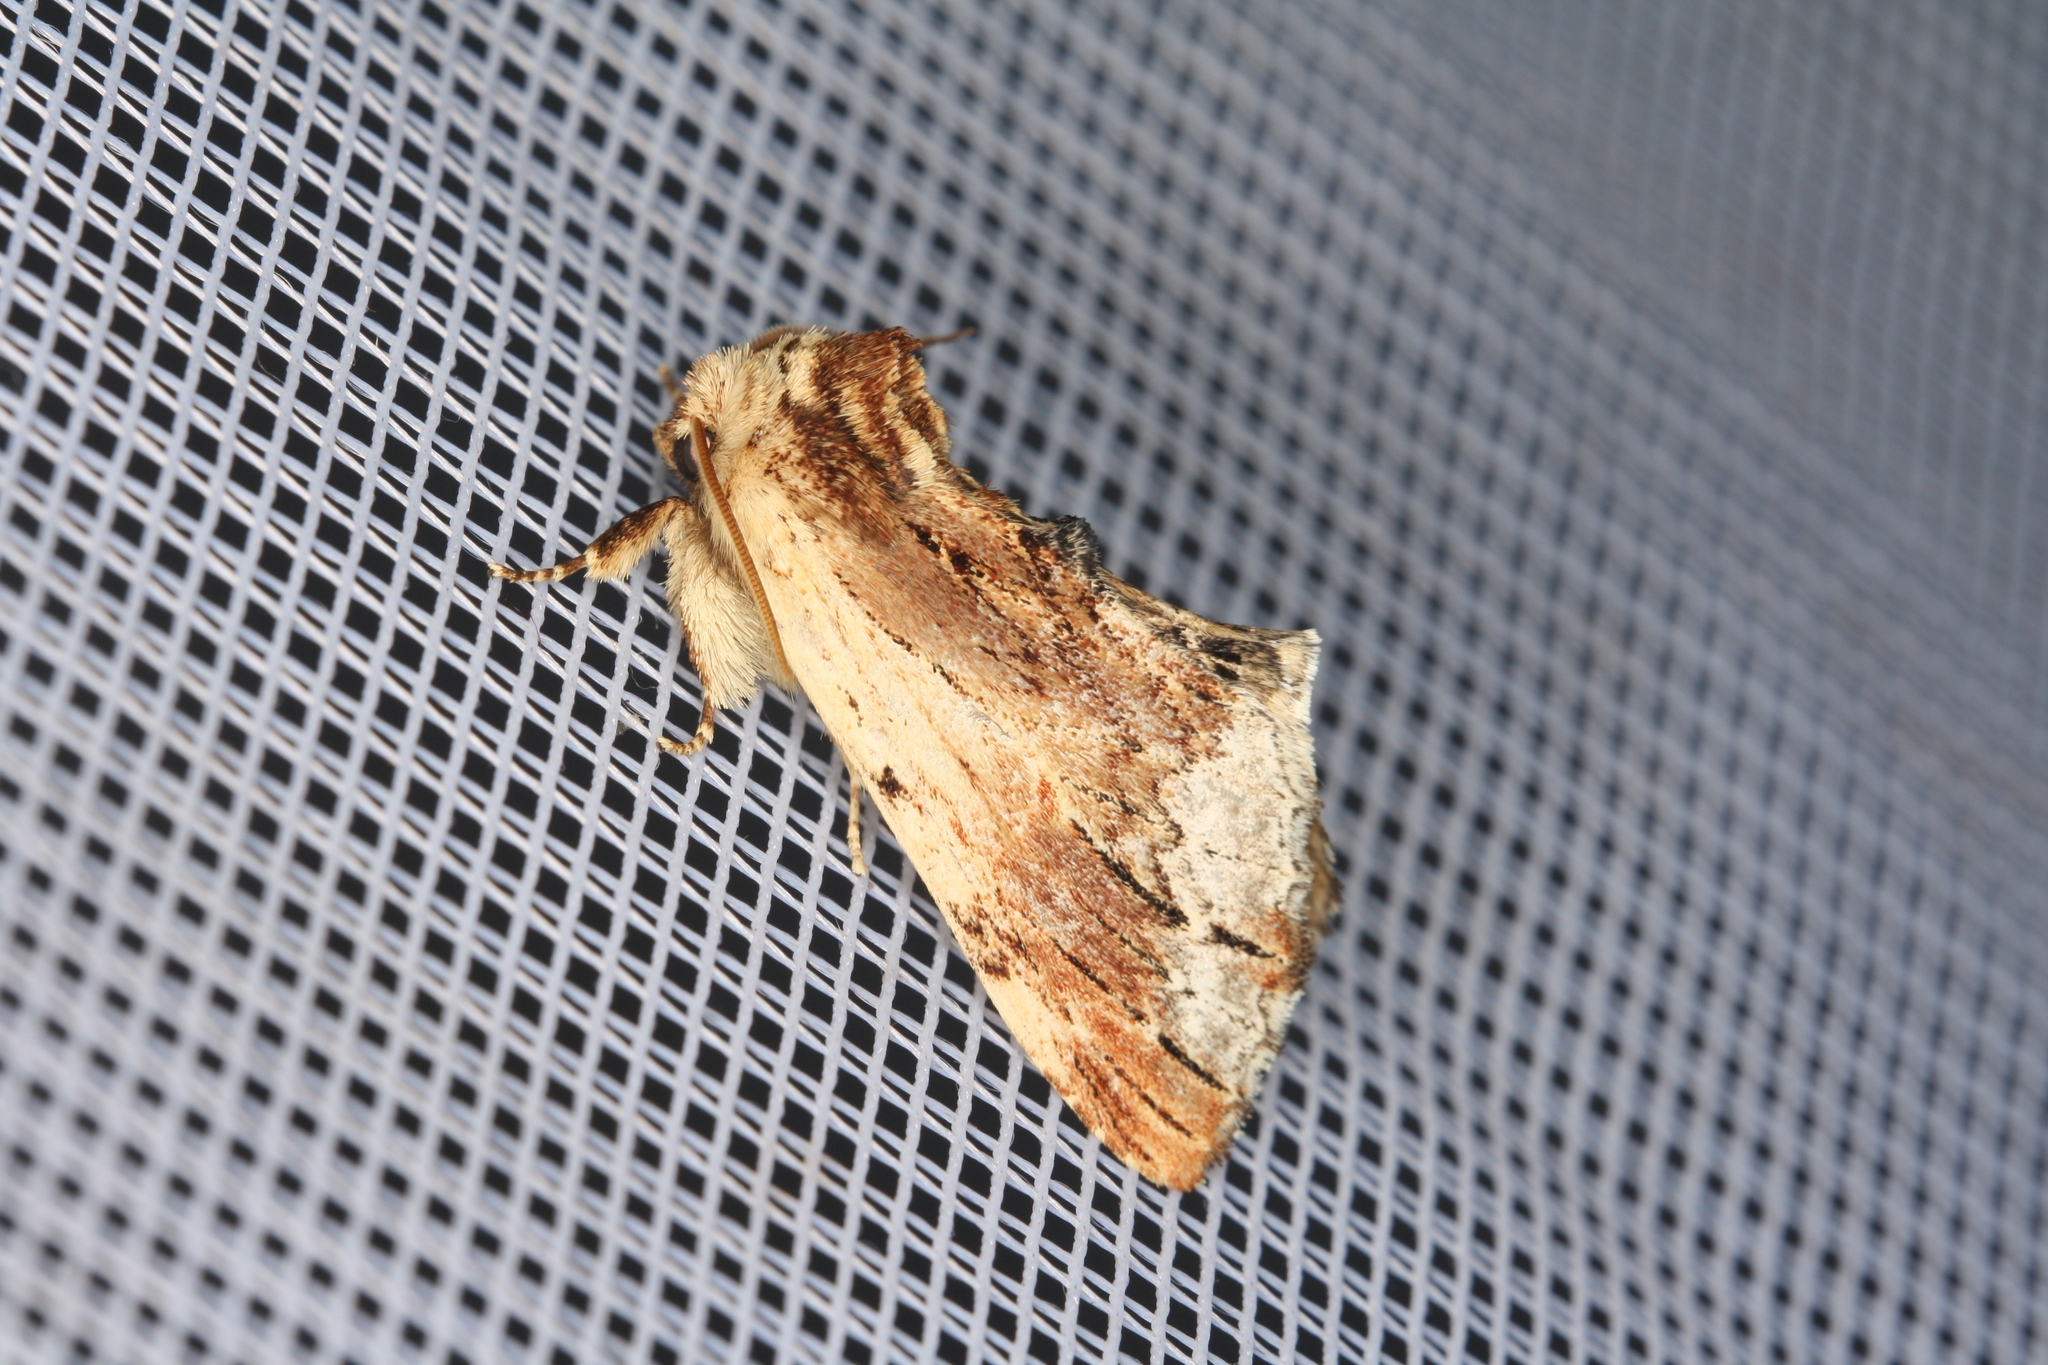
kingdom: Animalia
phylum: Arthropoda
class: Insecta
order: Lepidoptera
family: Notodontidae
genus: Ptilodon
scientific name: Ptilodon cucullina
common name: Maple prominent
